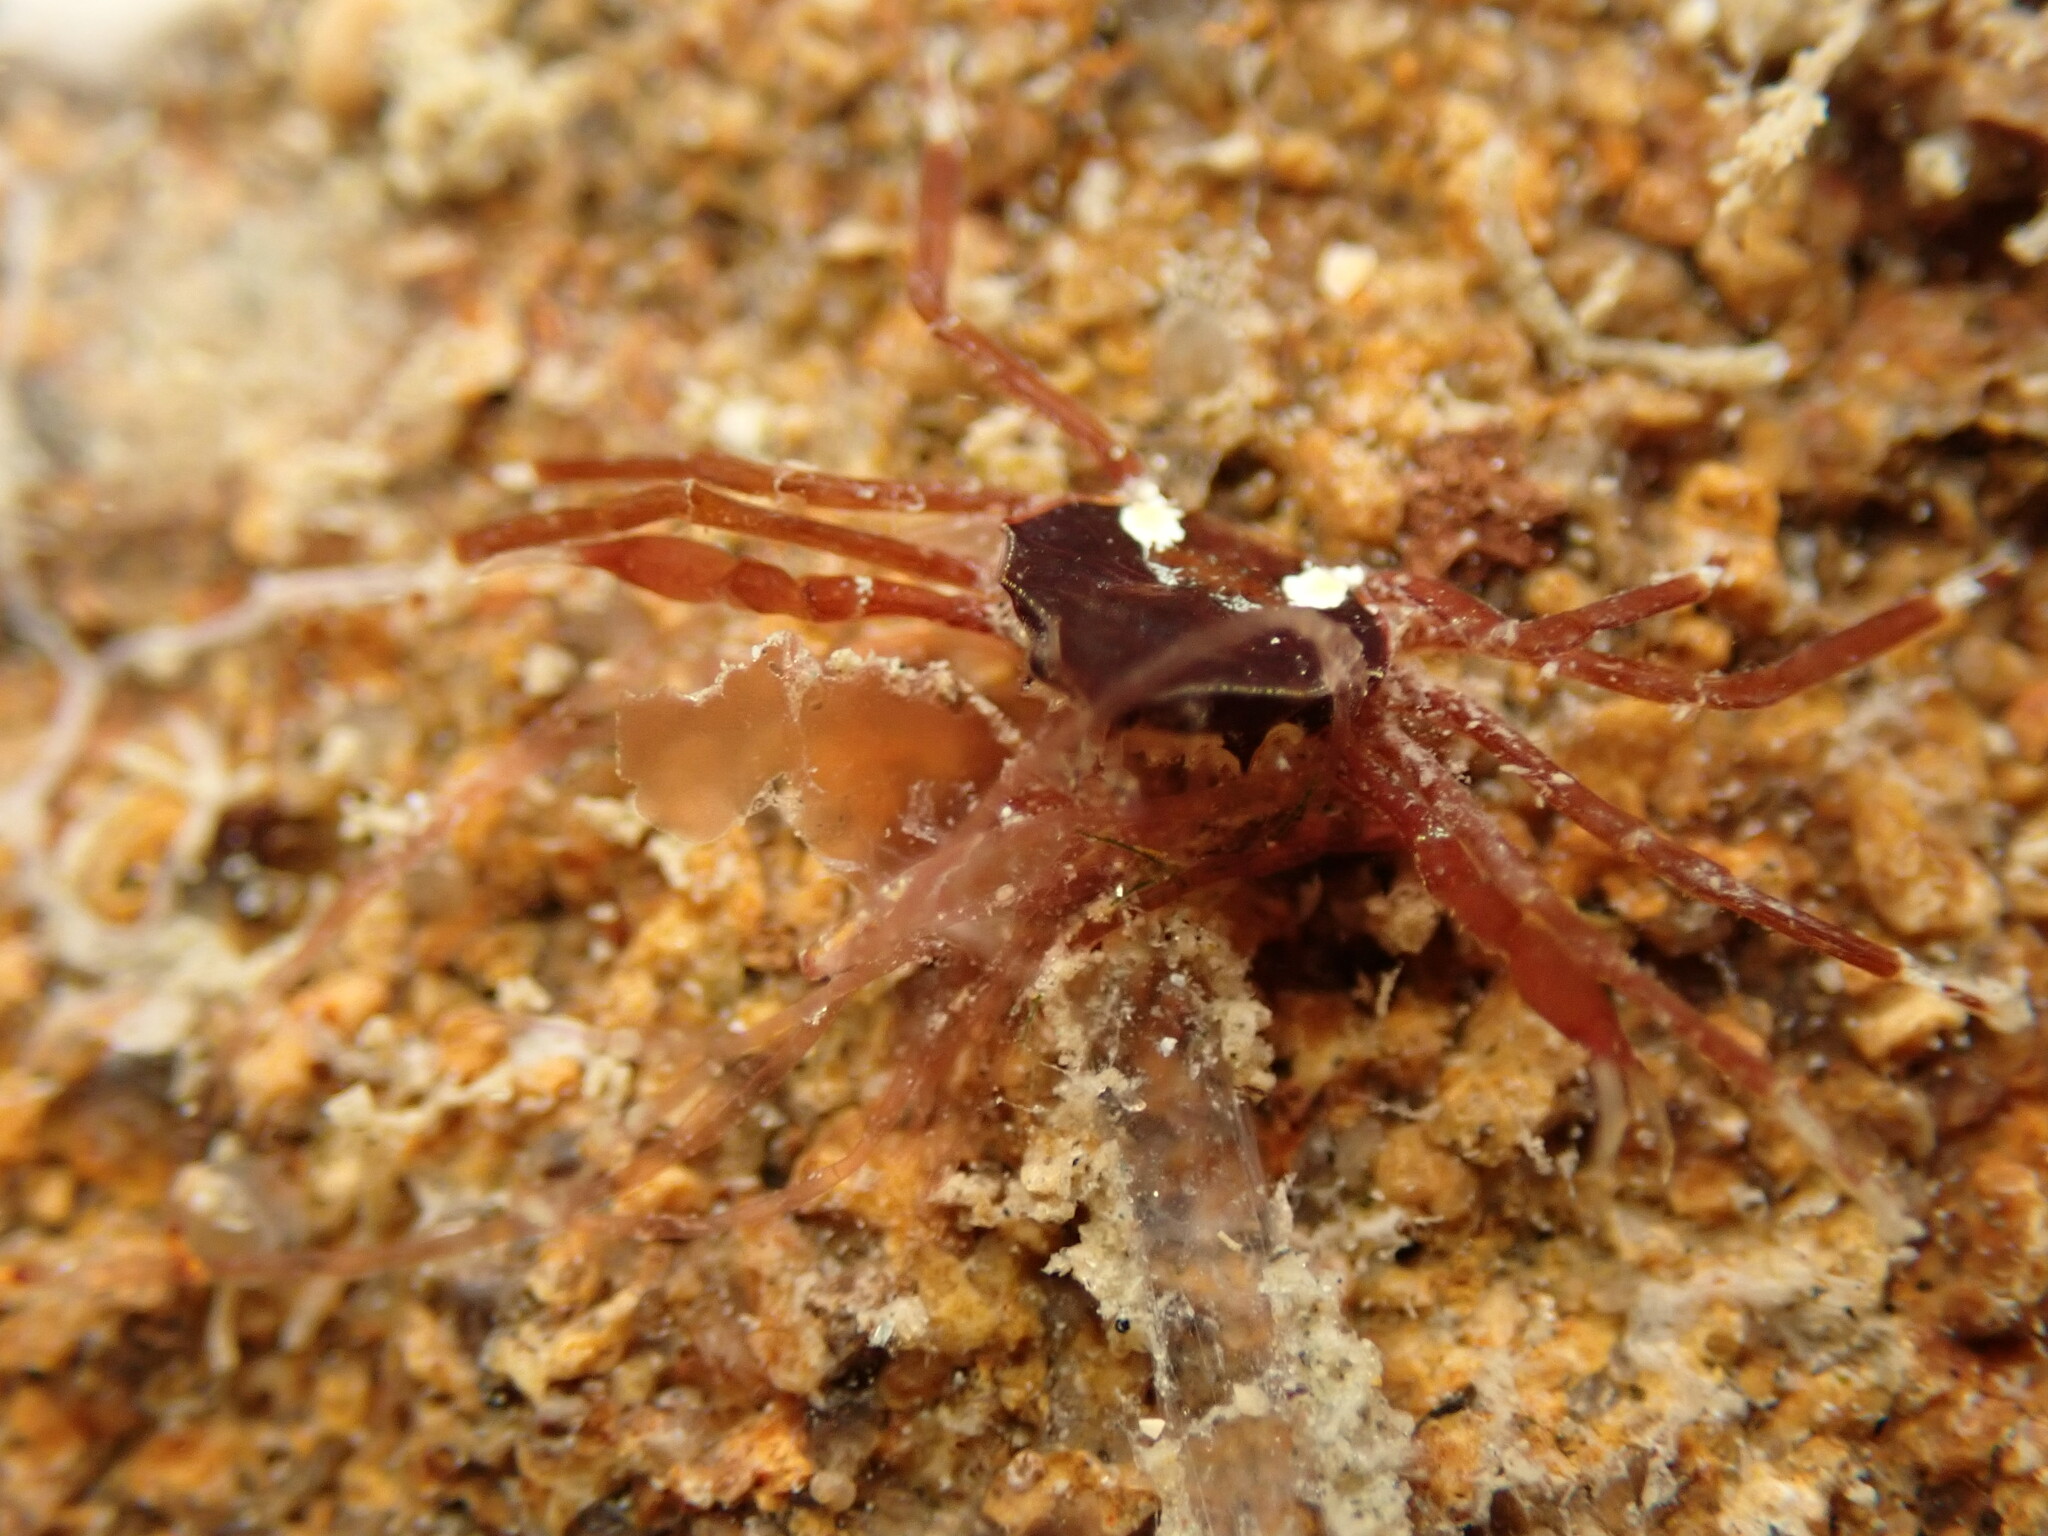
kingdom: Animalia
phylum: Arthropoda
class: Malacostraca
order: Decapoda
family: Hymenosomatidae
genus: Elamena
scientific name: Elamena producta
